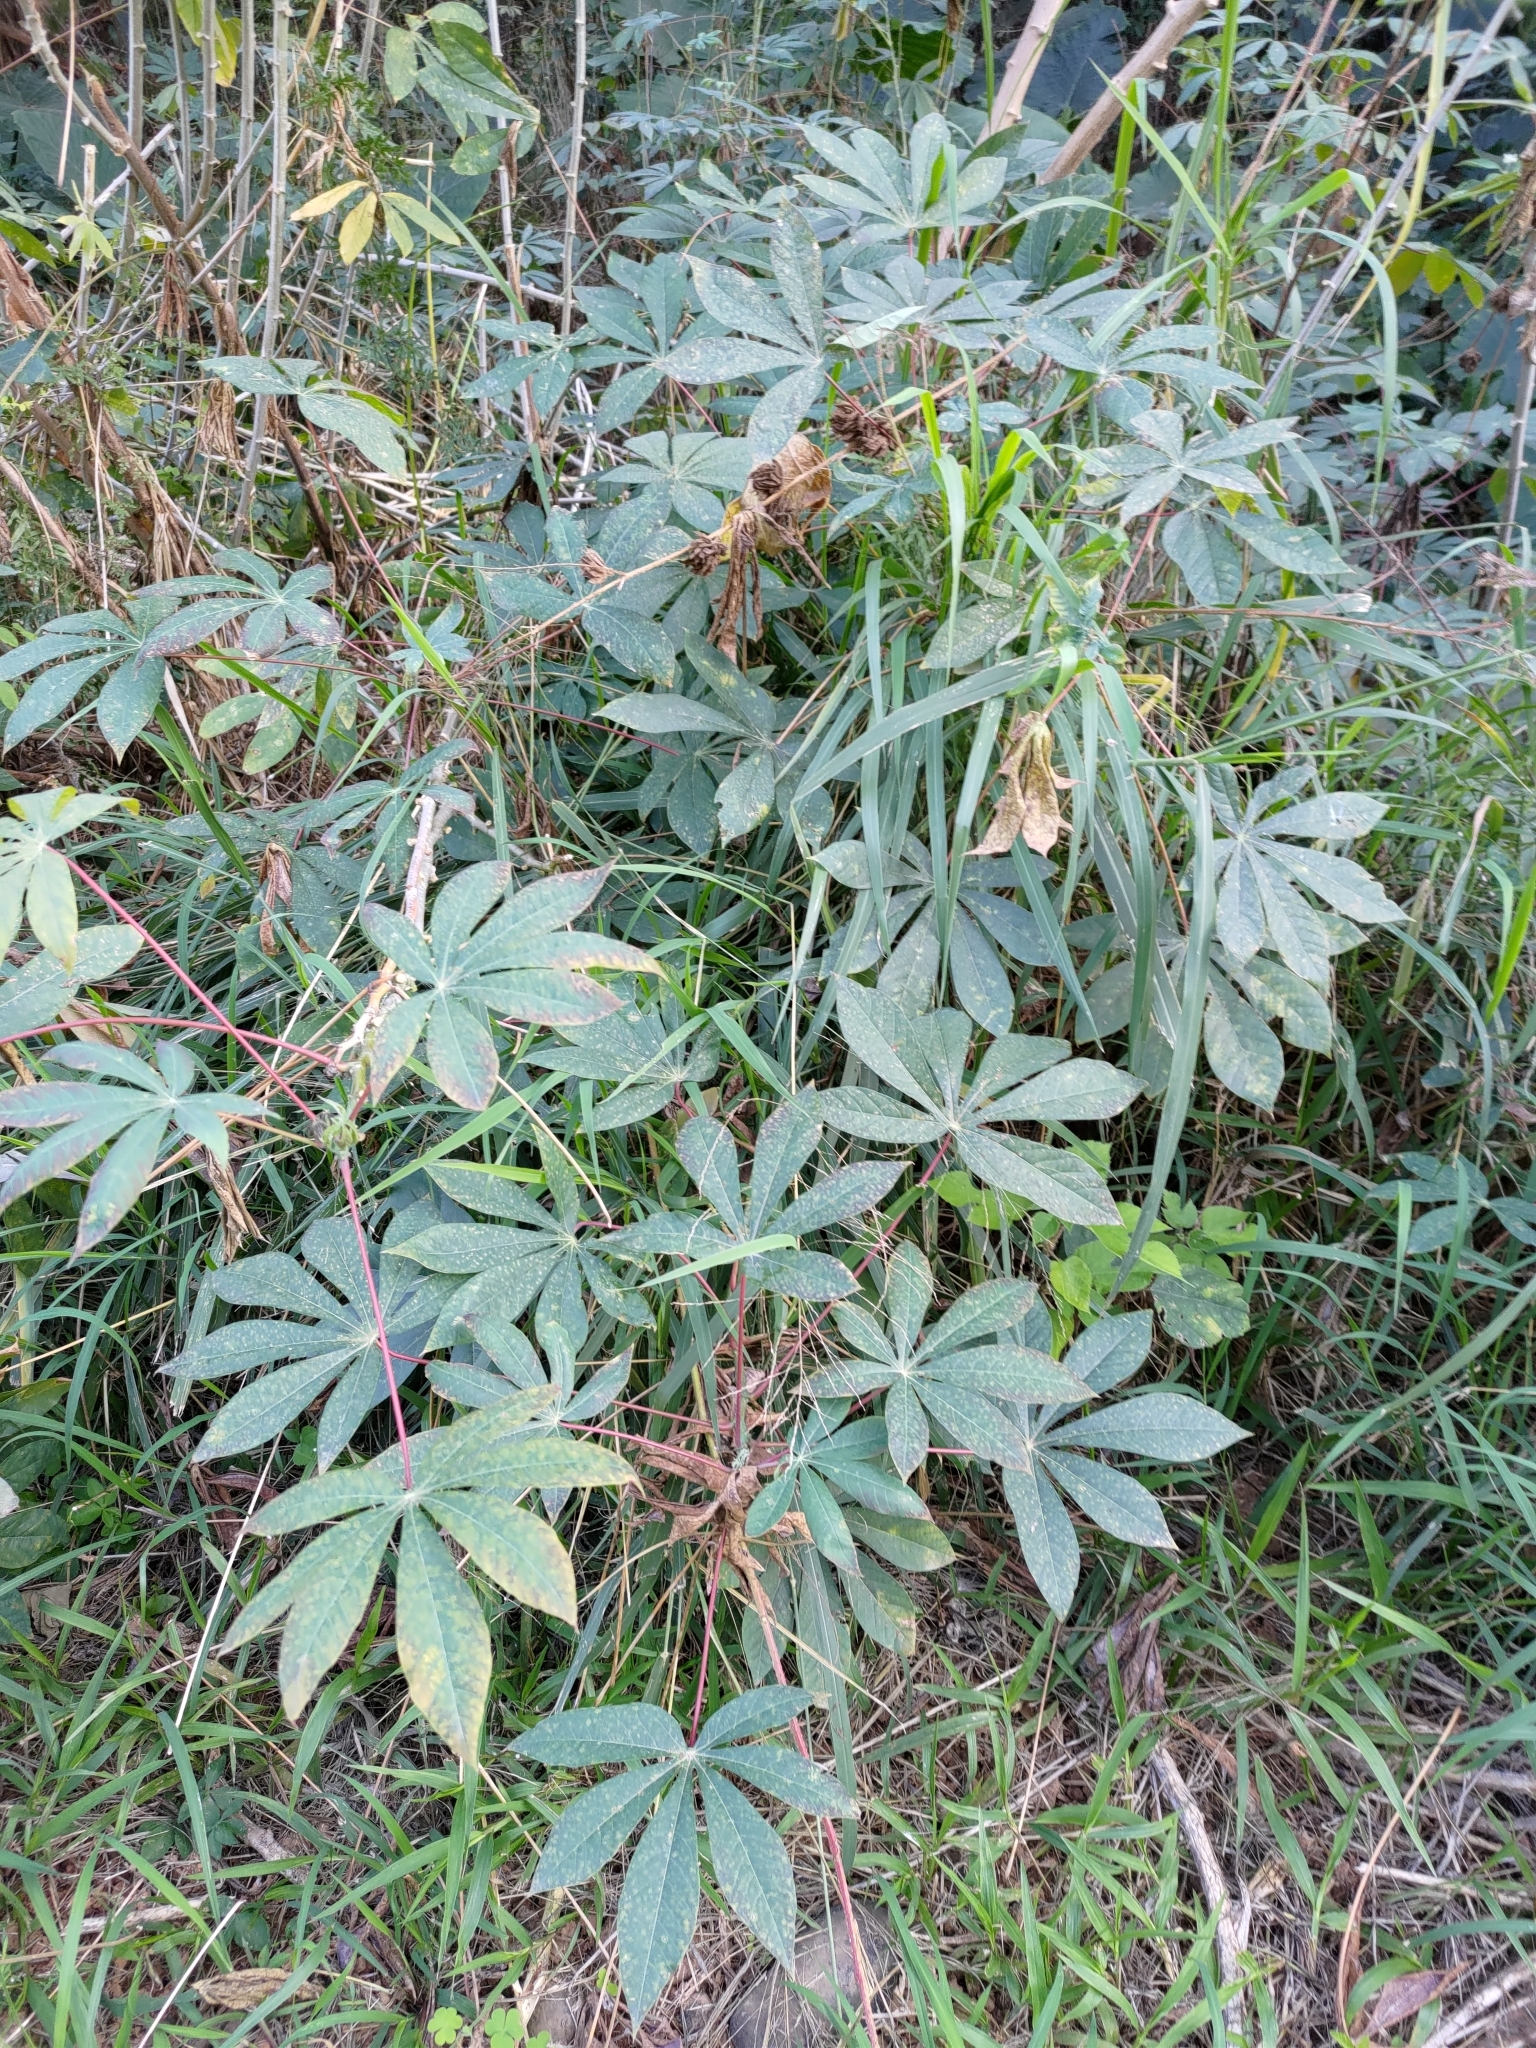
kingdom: Plantae
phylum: Tracheophyta
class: Magnoliopsida
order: Malpighiales
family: Euphorbiaceae
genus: Manihot
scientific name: Manihot esculenta
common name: Cassava
